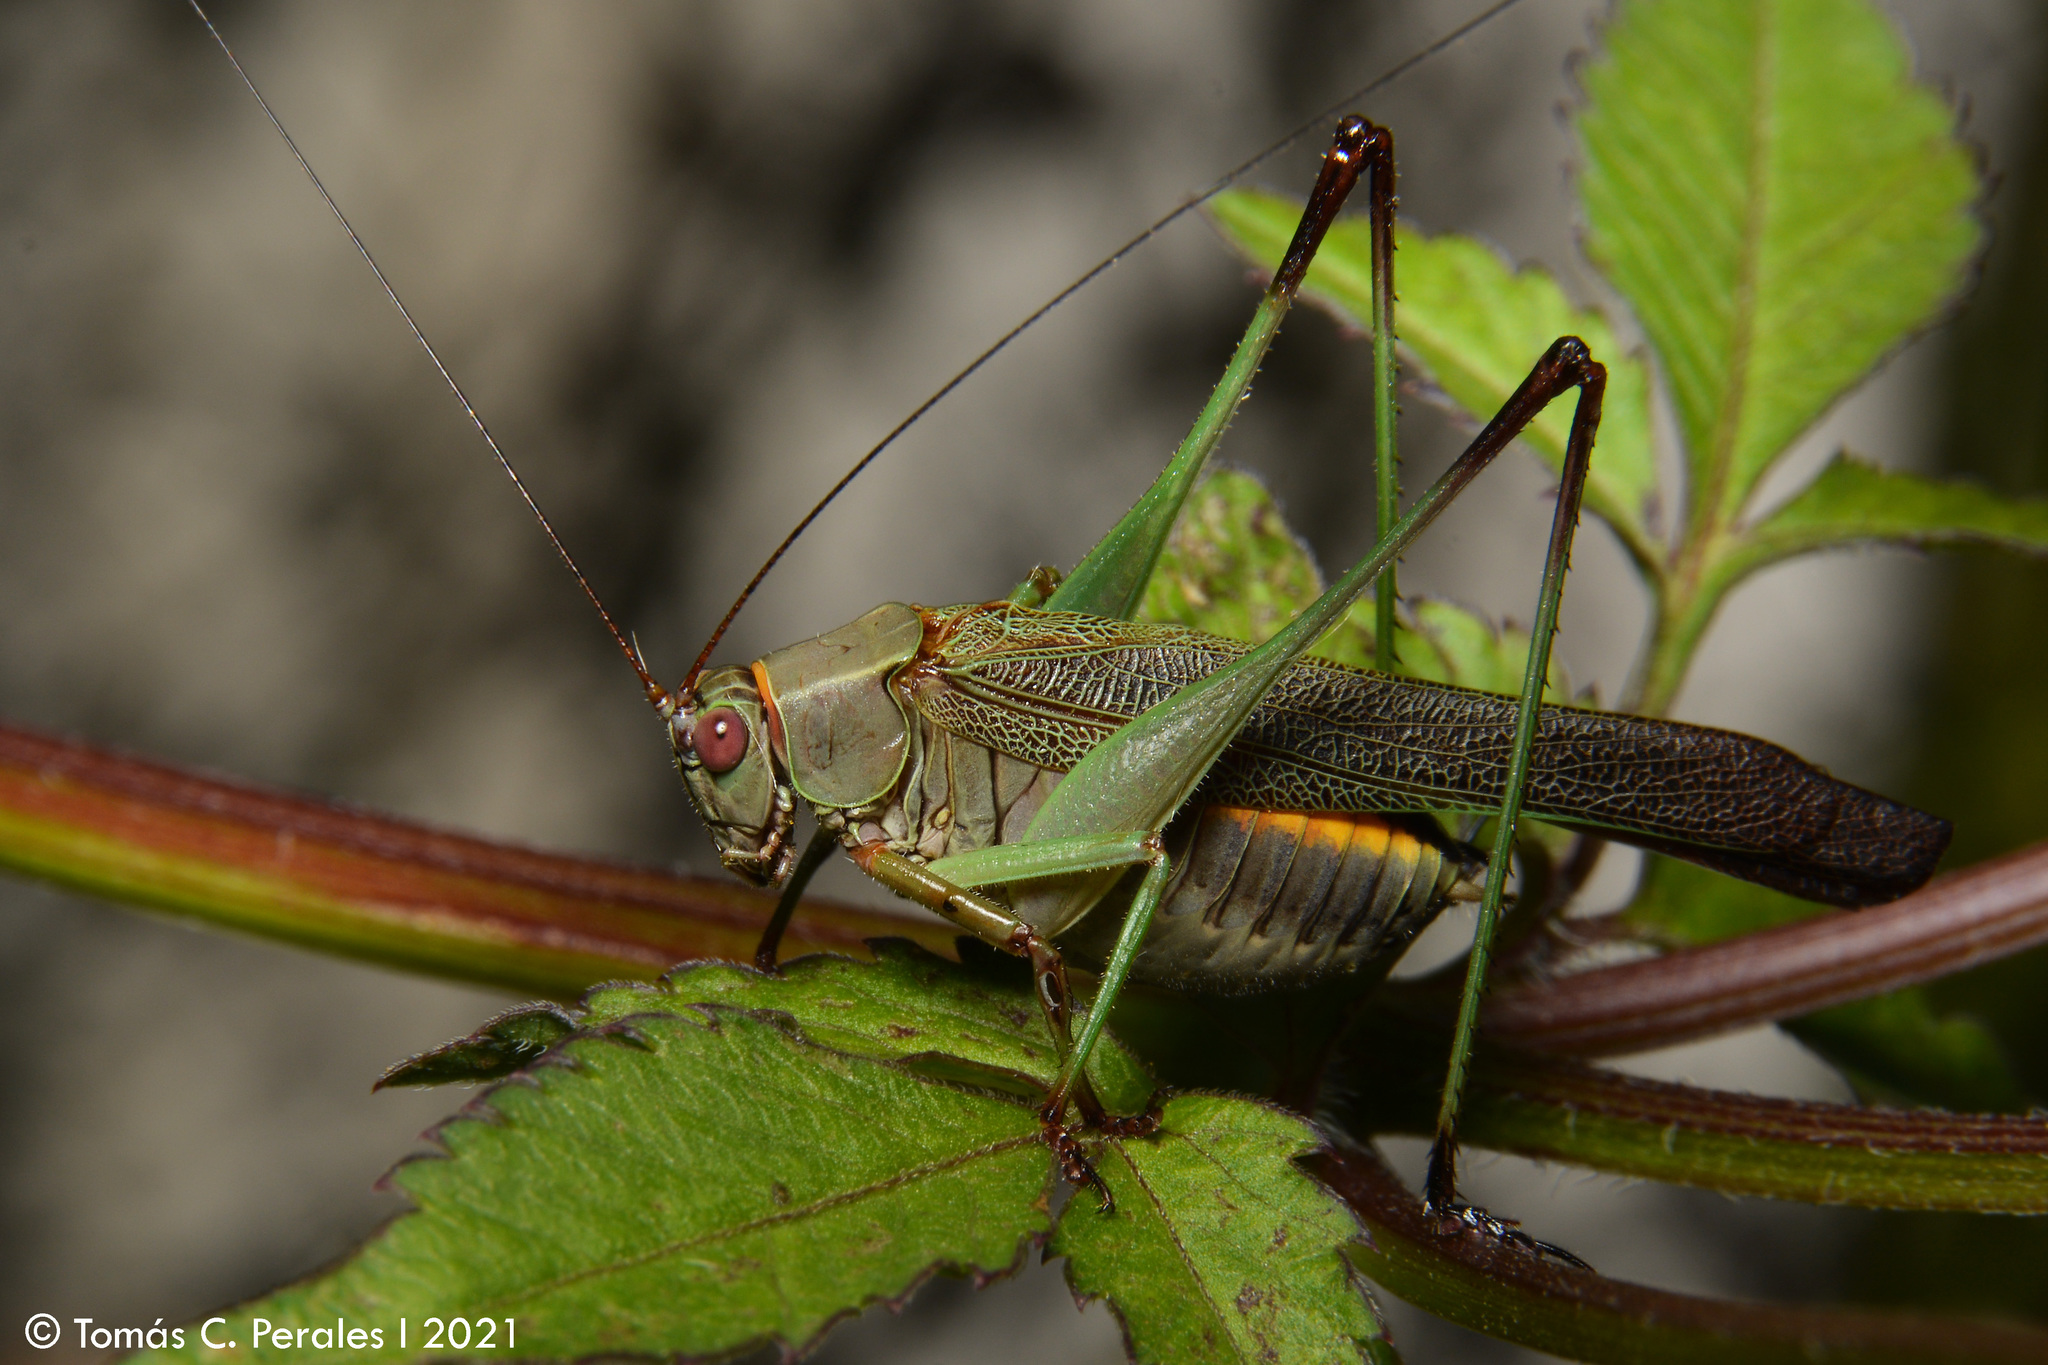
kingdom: Animalia
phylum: Arthropoda
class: Insecta
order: Orthoptera
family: Tettigoniidae
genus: Enthephippion
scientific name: Enthephippion borellii
